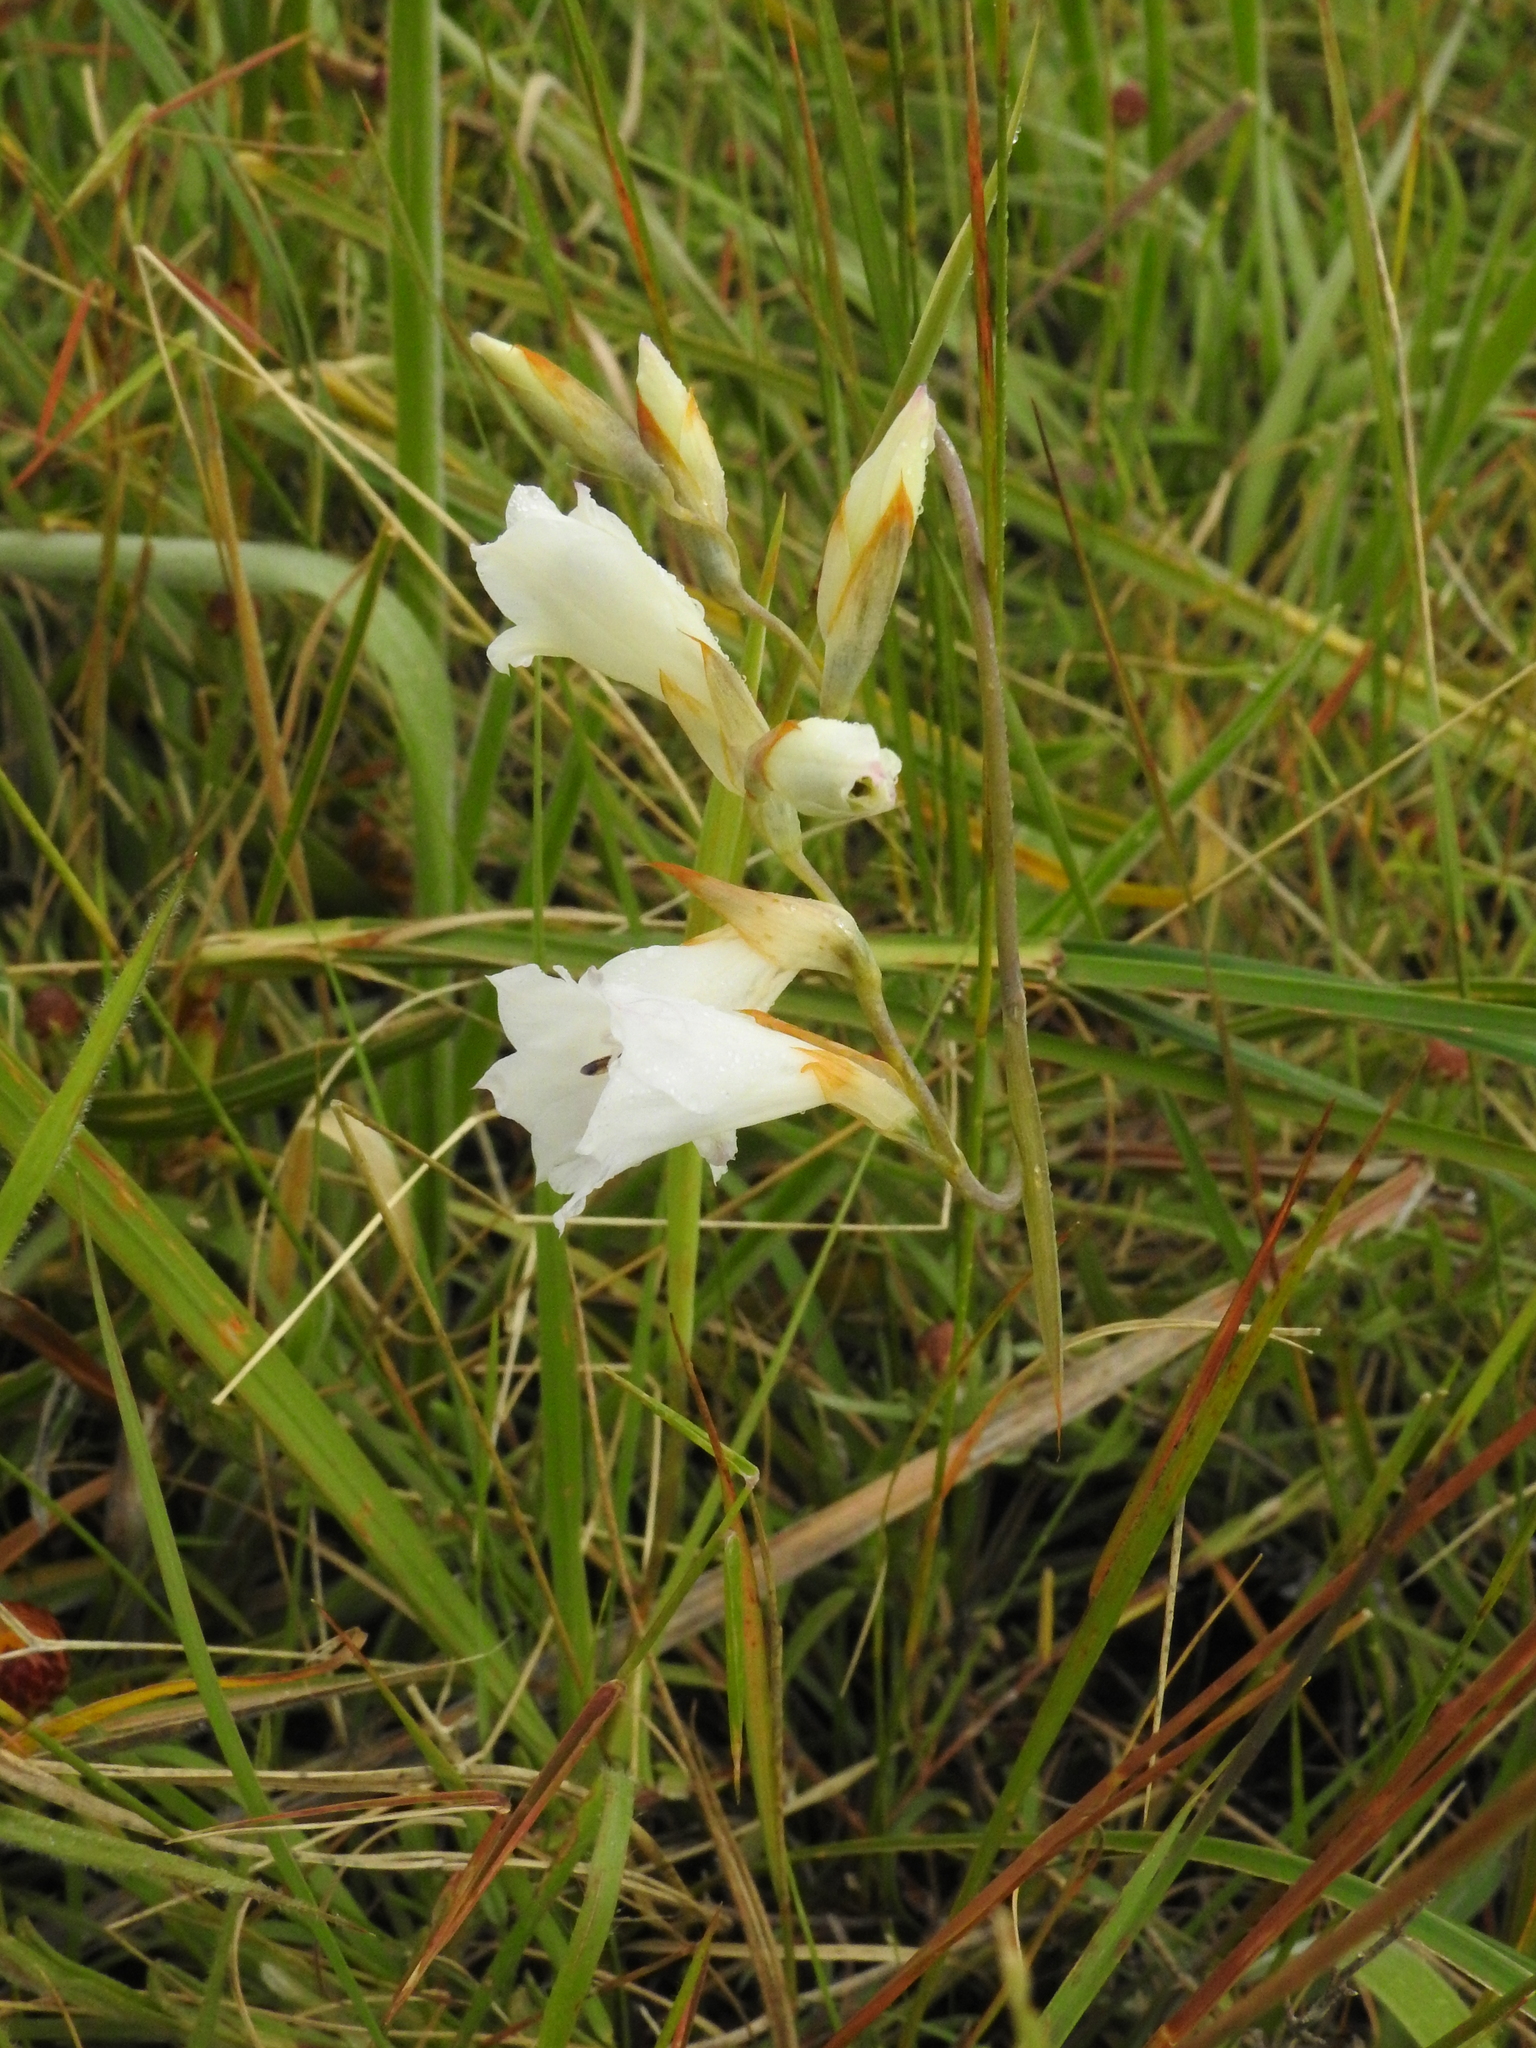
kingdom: Plantae
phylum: Tracheophyta
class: Liliopsida
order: Asparagales
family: Iridaceae
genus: Gladiolus
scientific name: Gladiolus ferrugineus
